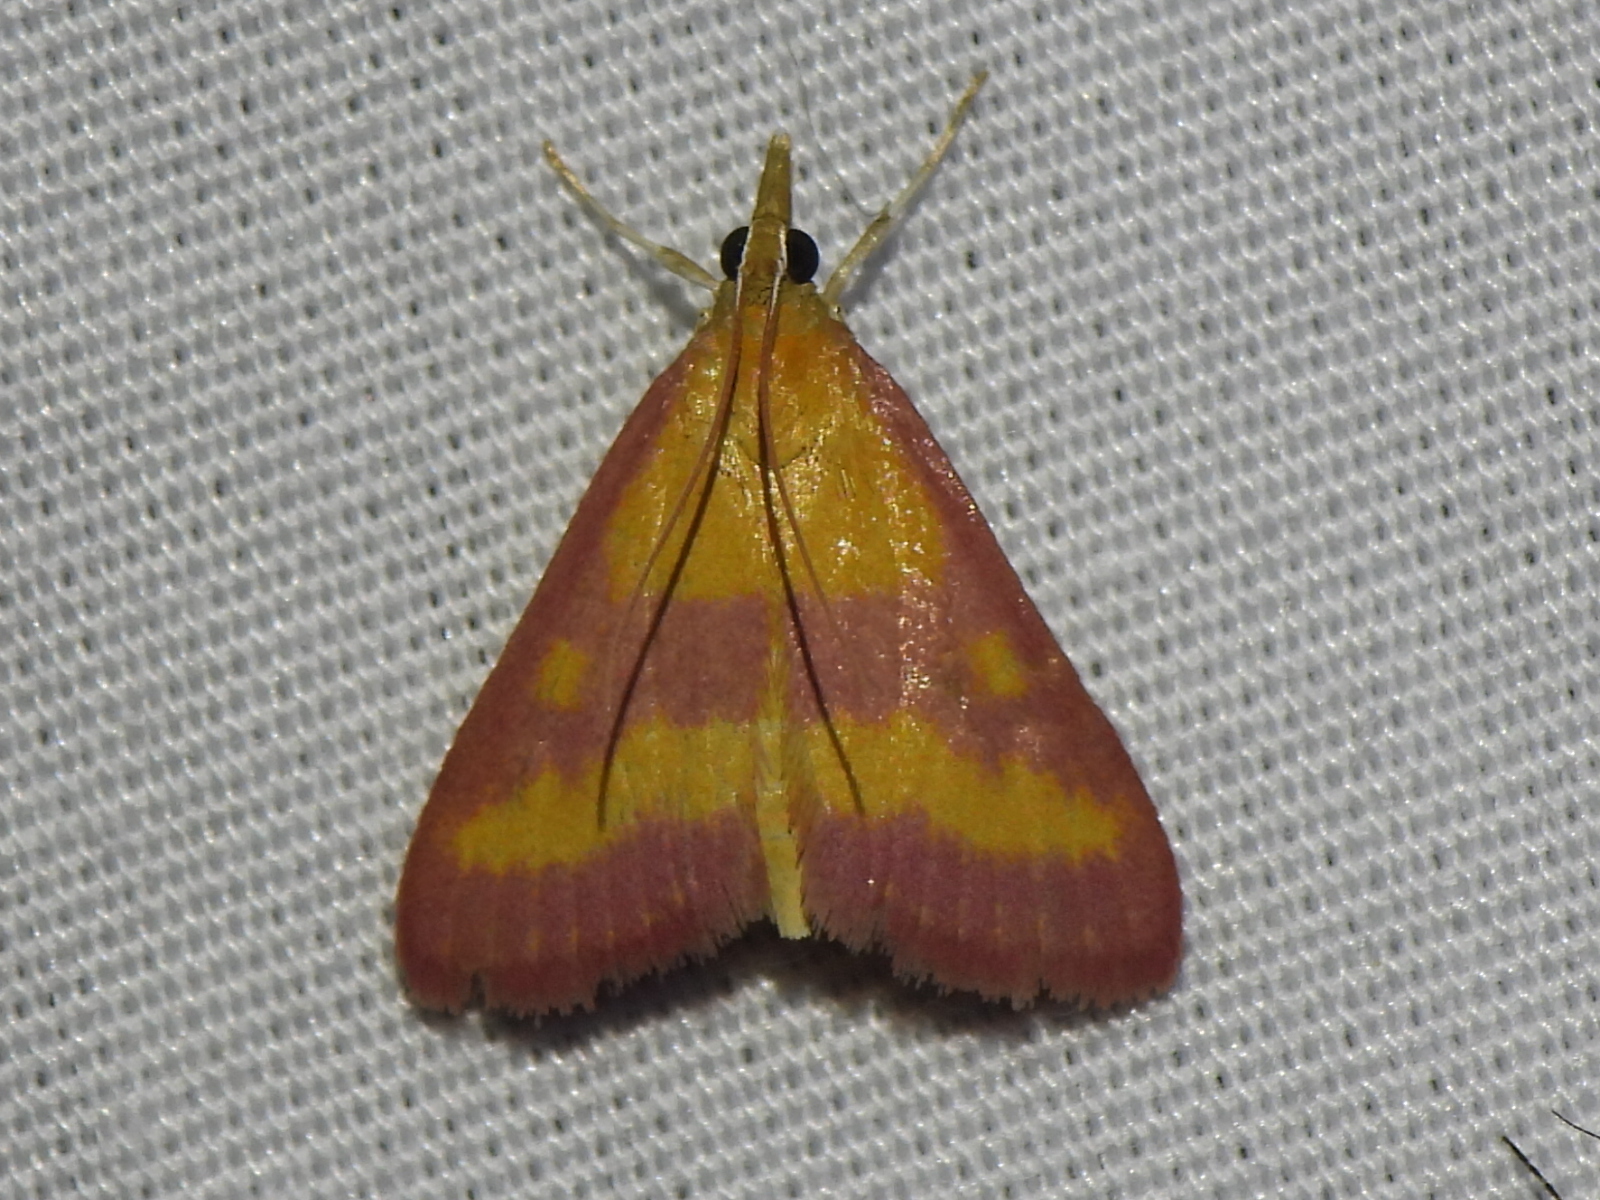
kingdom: Animalia
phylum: Arthropoda
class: Insecta
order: Lepidoptera
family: Crambidae
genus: Pyrausta
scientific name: Pyrausta laticlavia
